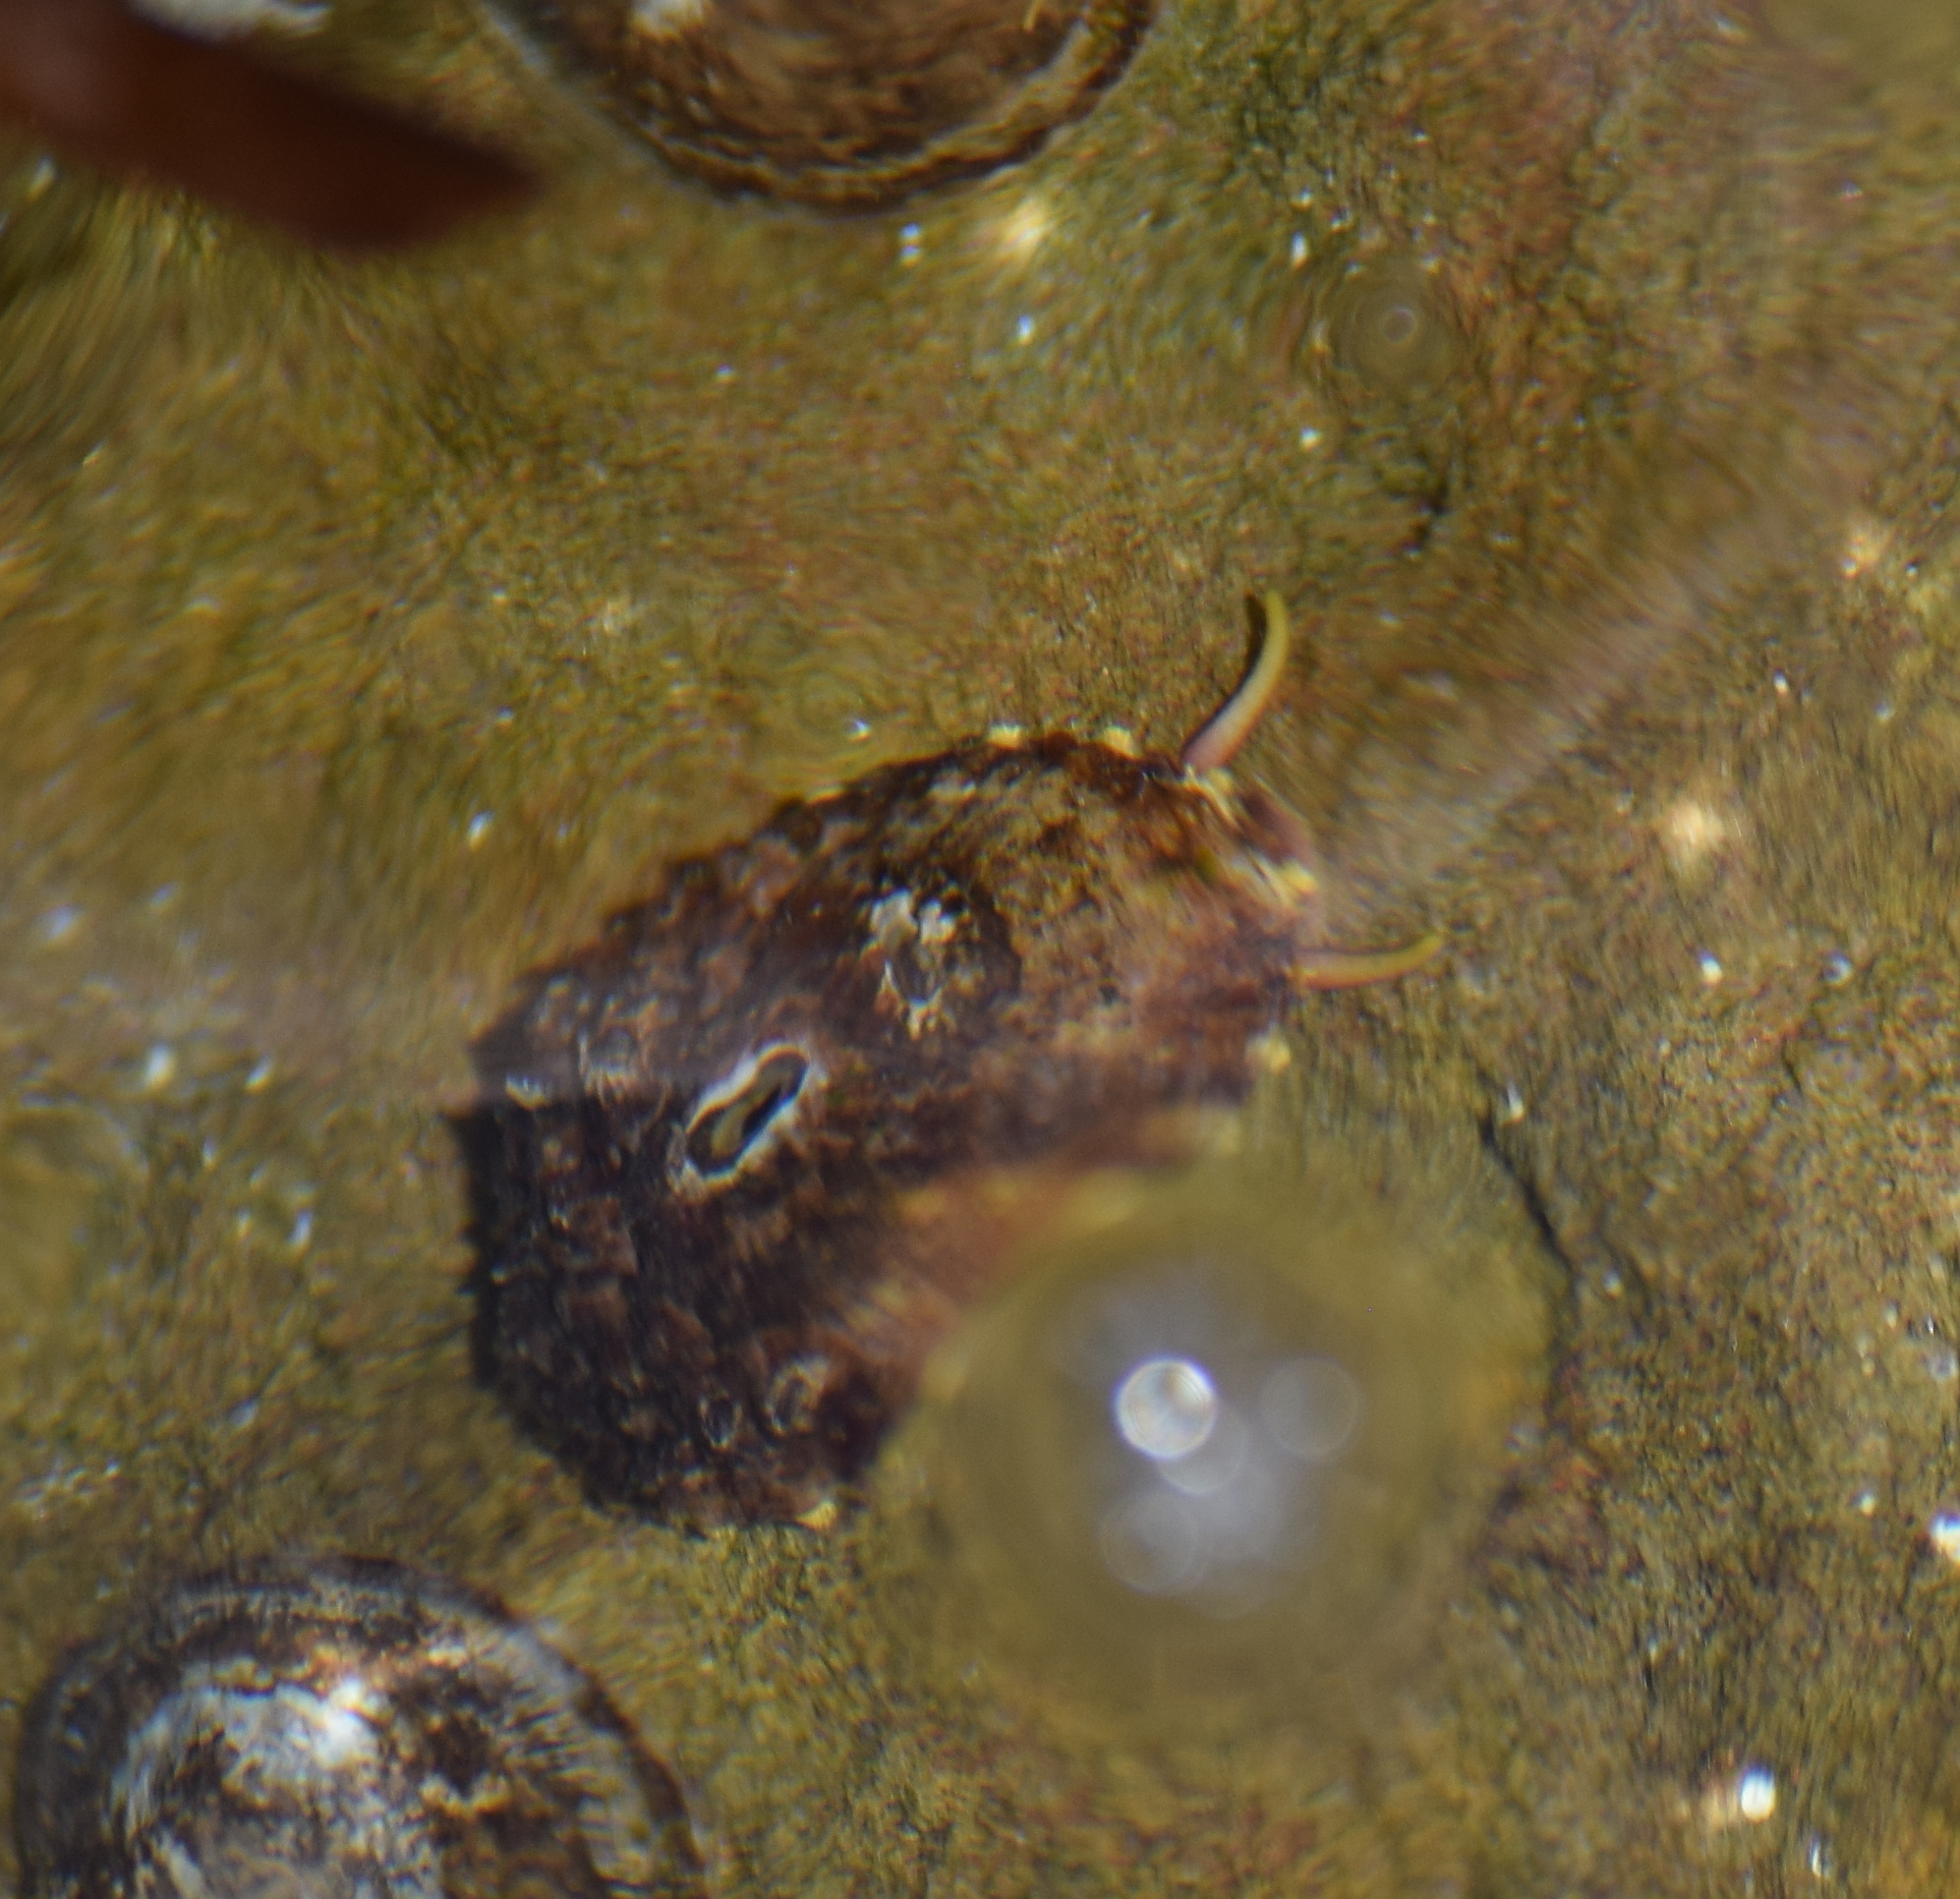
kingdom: Animalia
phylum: Mollusca
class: Gastropoda
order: Lepetellida
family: Fissurellidae
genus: Fissurella
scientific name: Fissurella volcano
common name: Volcano keyhole limpet
